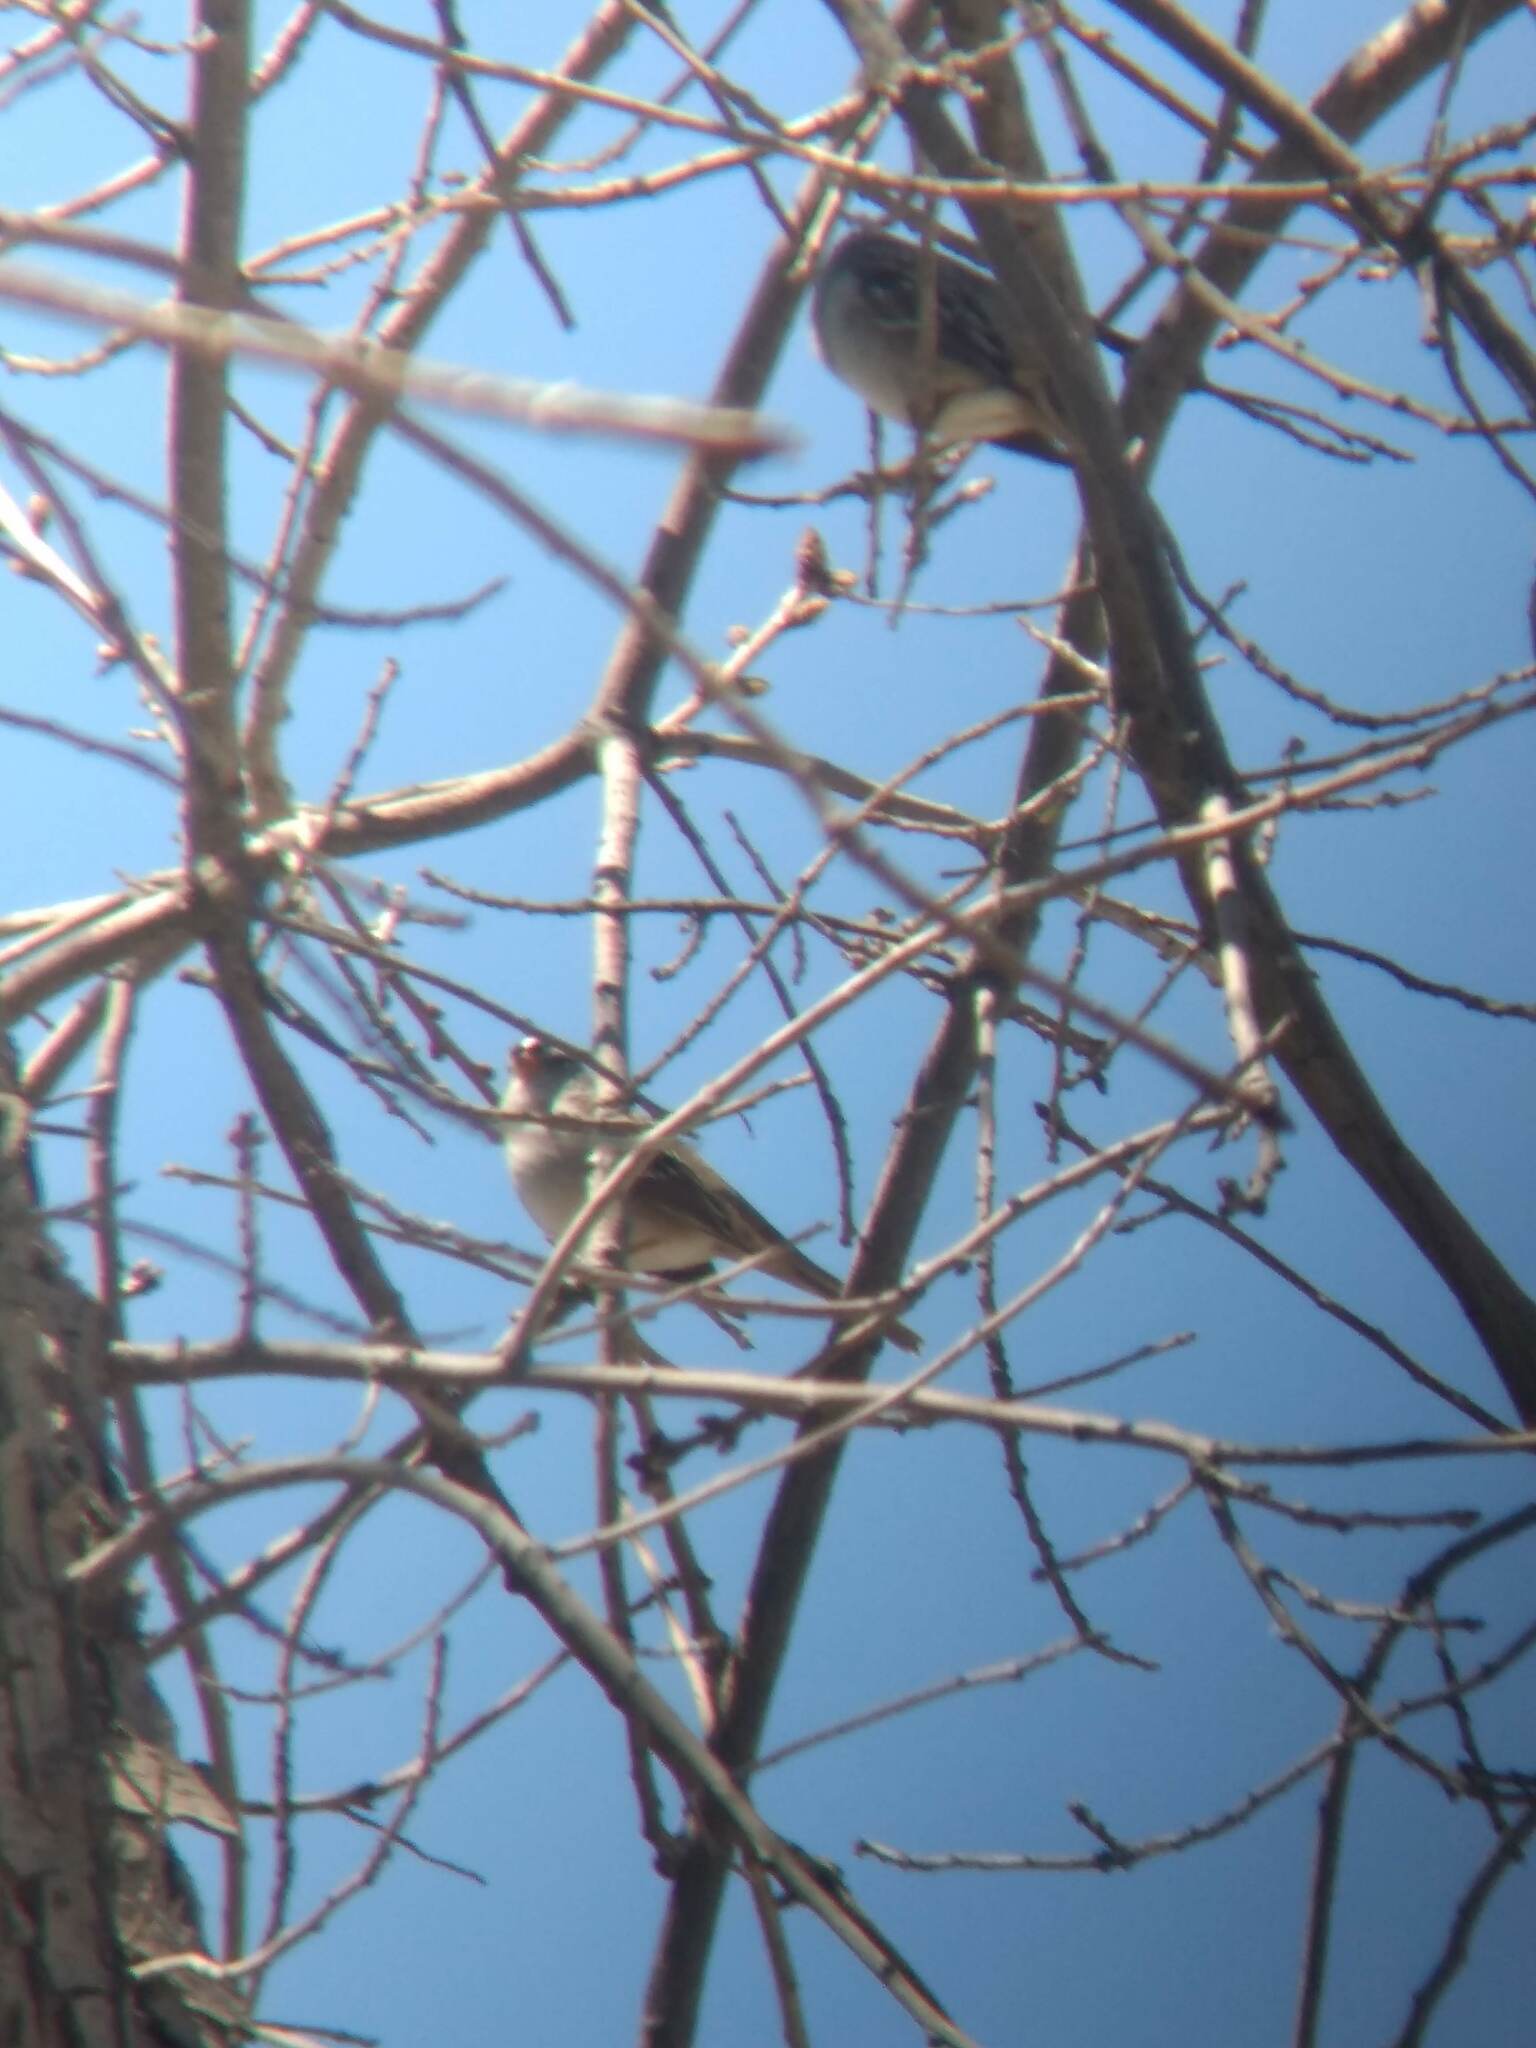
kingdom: Animalia
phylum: Chordata
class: Aves
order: Passeriformes
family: Passerellidae
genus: Zonotrichia
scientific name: Zonotrichia leucophrys
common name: White-crowned sparrow
